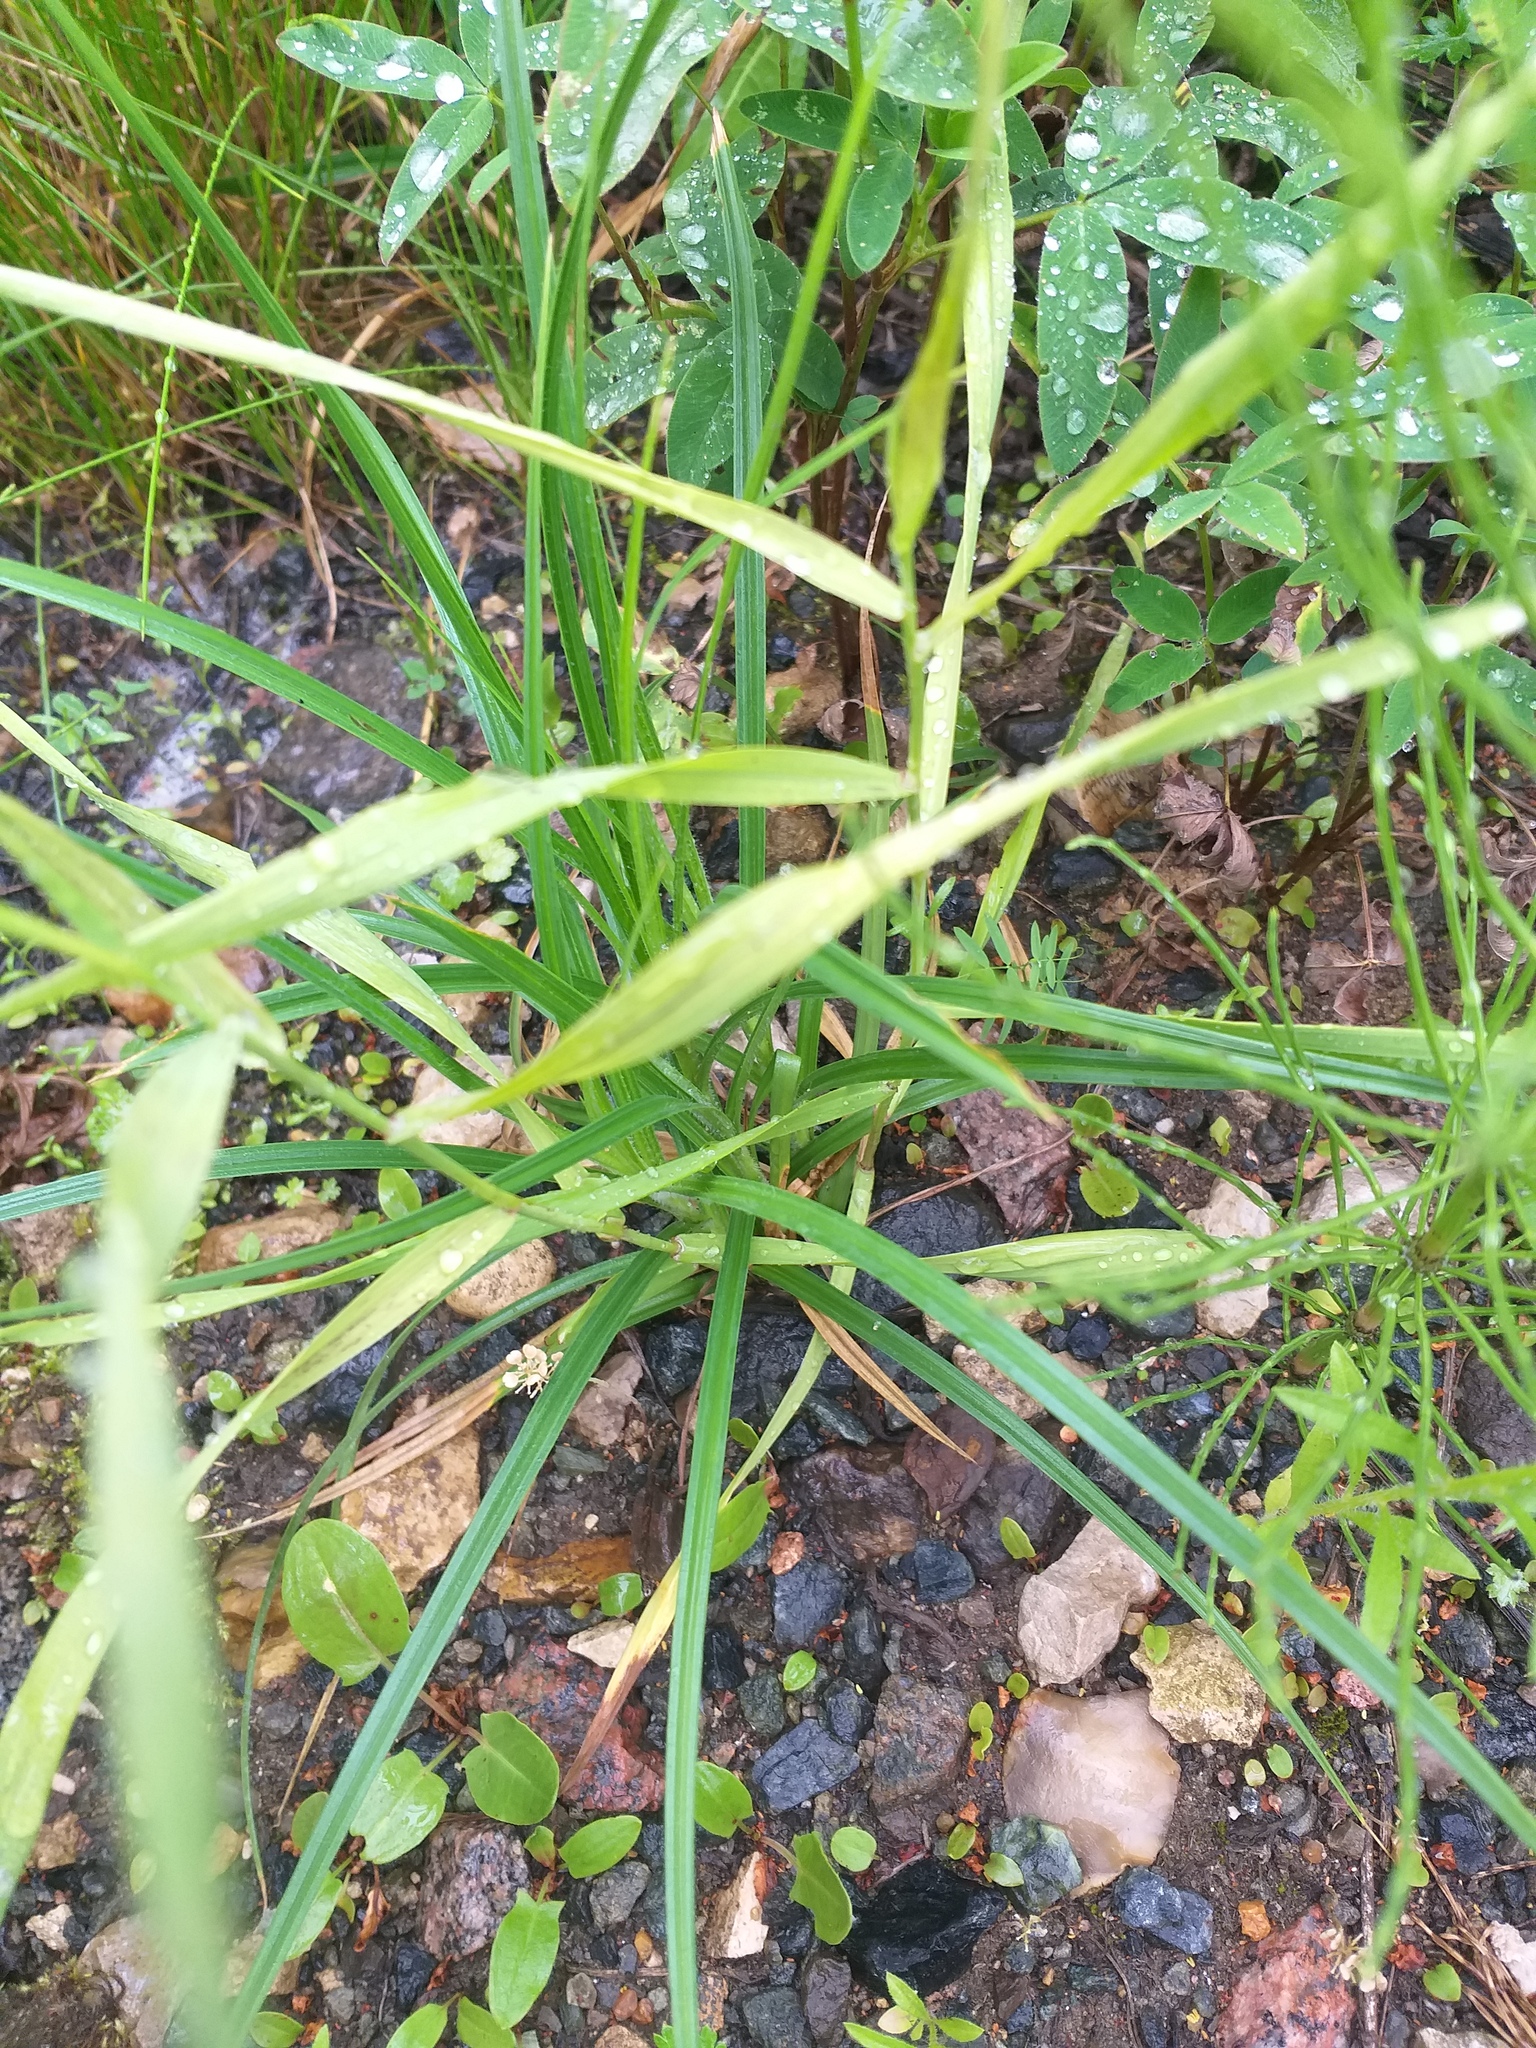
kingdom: Plantae
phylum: Tracheophyta
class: Liliopsida
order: Poales
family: Cyperaceae
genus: Carex
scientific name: Carex hirta
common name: Hairy sedge
